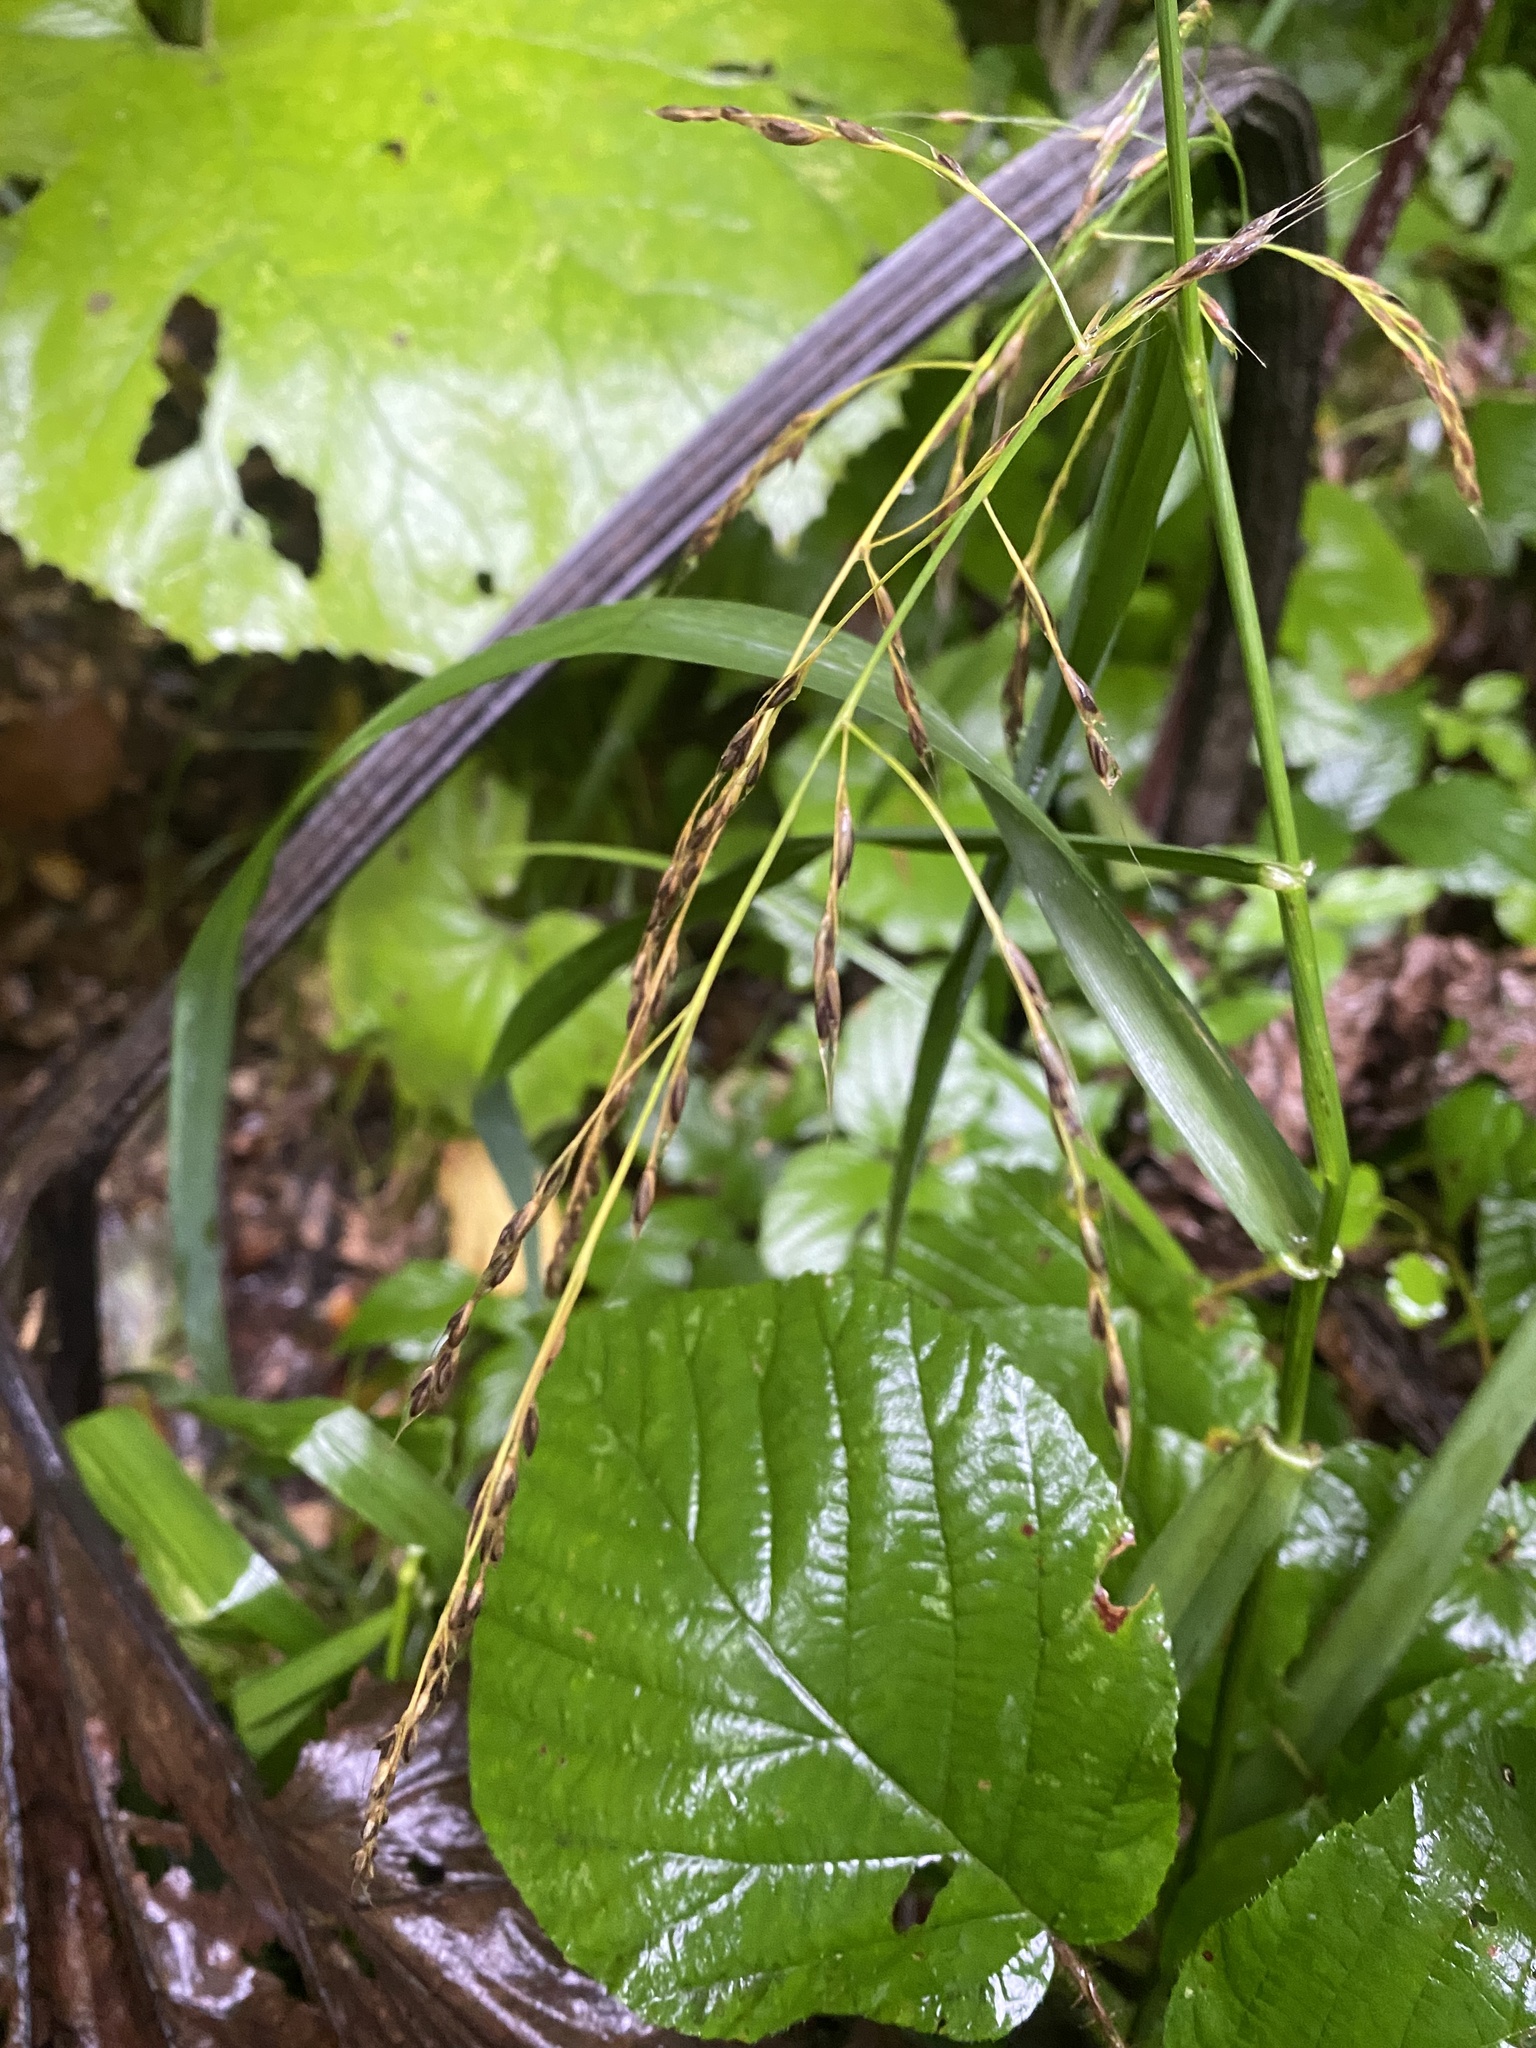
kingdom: Plantae
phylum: Tracheophyta
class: Liliopsida
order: Poales
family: Poaceae
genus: Lolium
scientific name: Lolium giganteum
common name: Giant fescue
